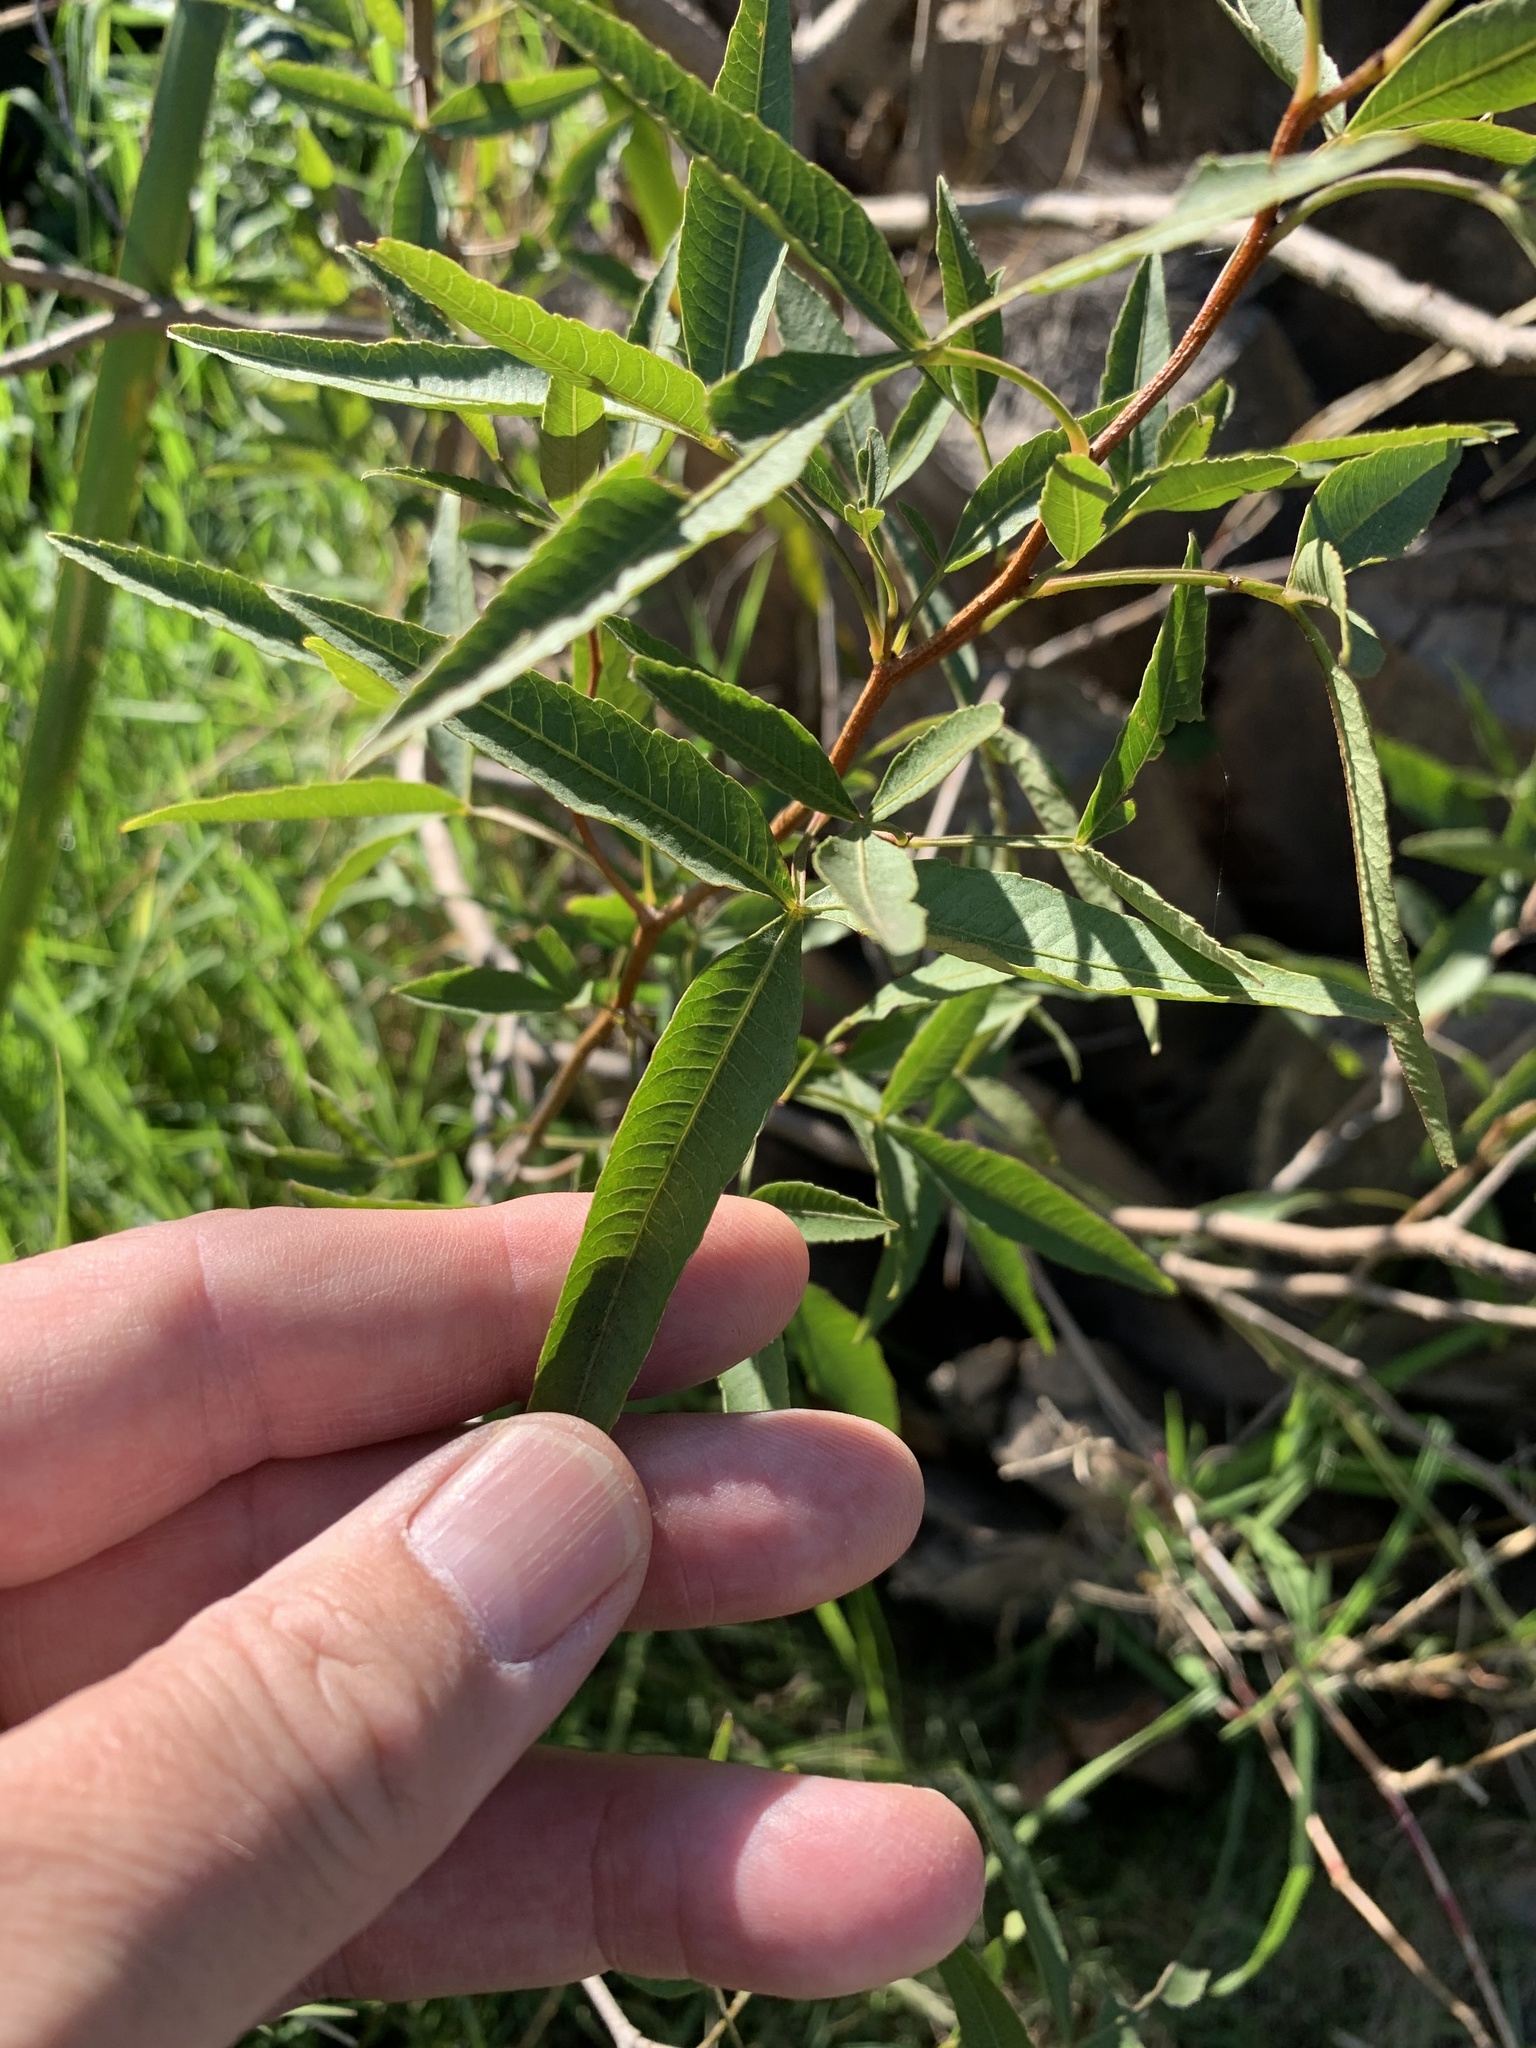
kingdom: Plantae
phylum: Tracheophyta
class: Magnoliopsida
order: Sapindales
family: Anacardiaceae
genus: Searsia
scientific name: Searsia pendulina
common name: White karee
